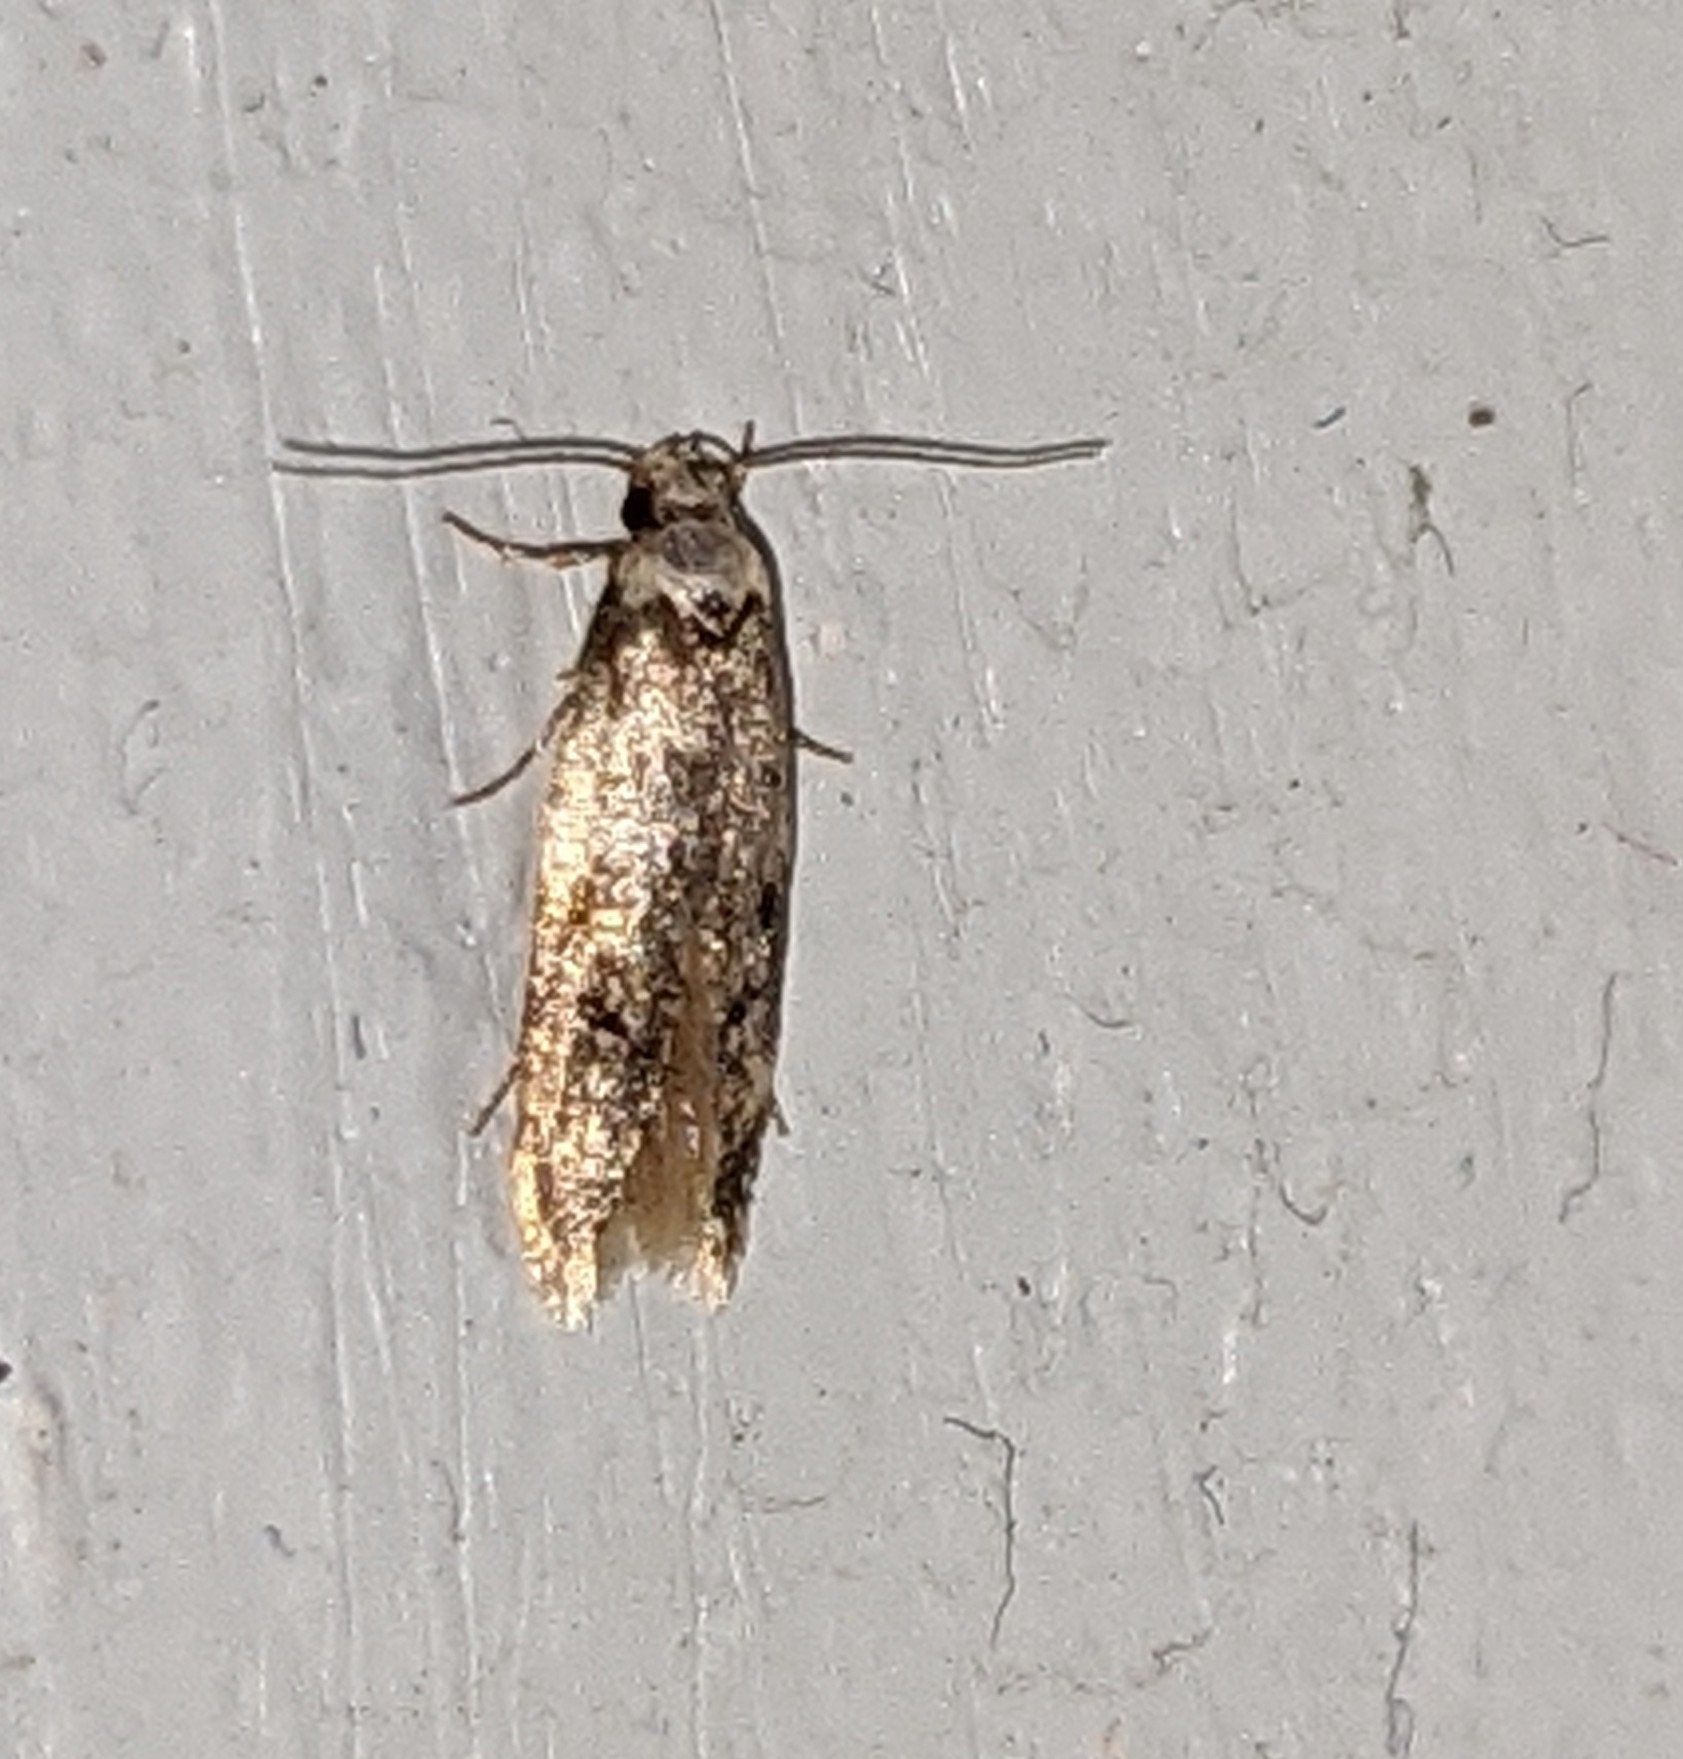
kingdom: Animalia
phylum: Arthropoda
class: Insecta
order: Lepidoptera
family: Oecophoridae
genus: Endrosis
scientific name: Endrosis sarcitrella
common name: White-shouldered house moth
